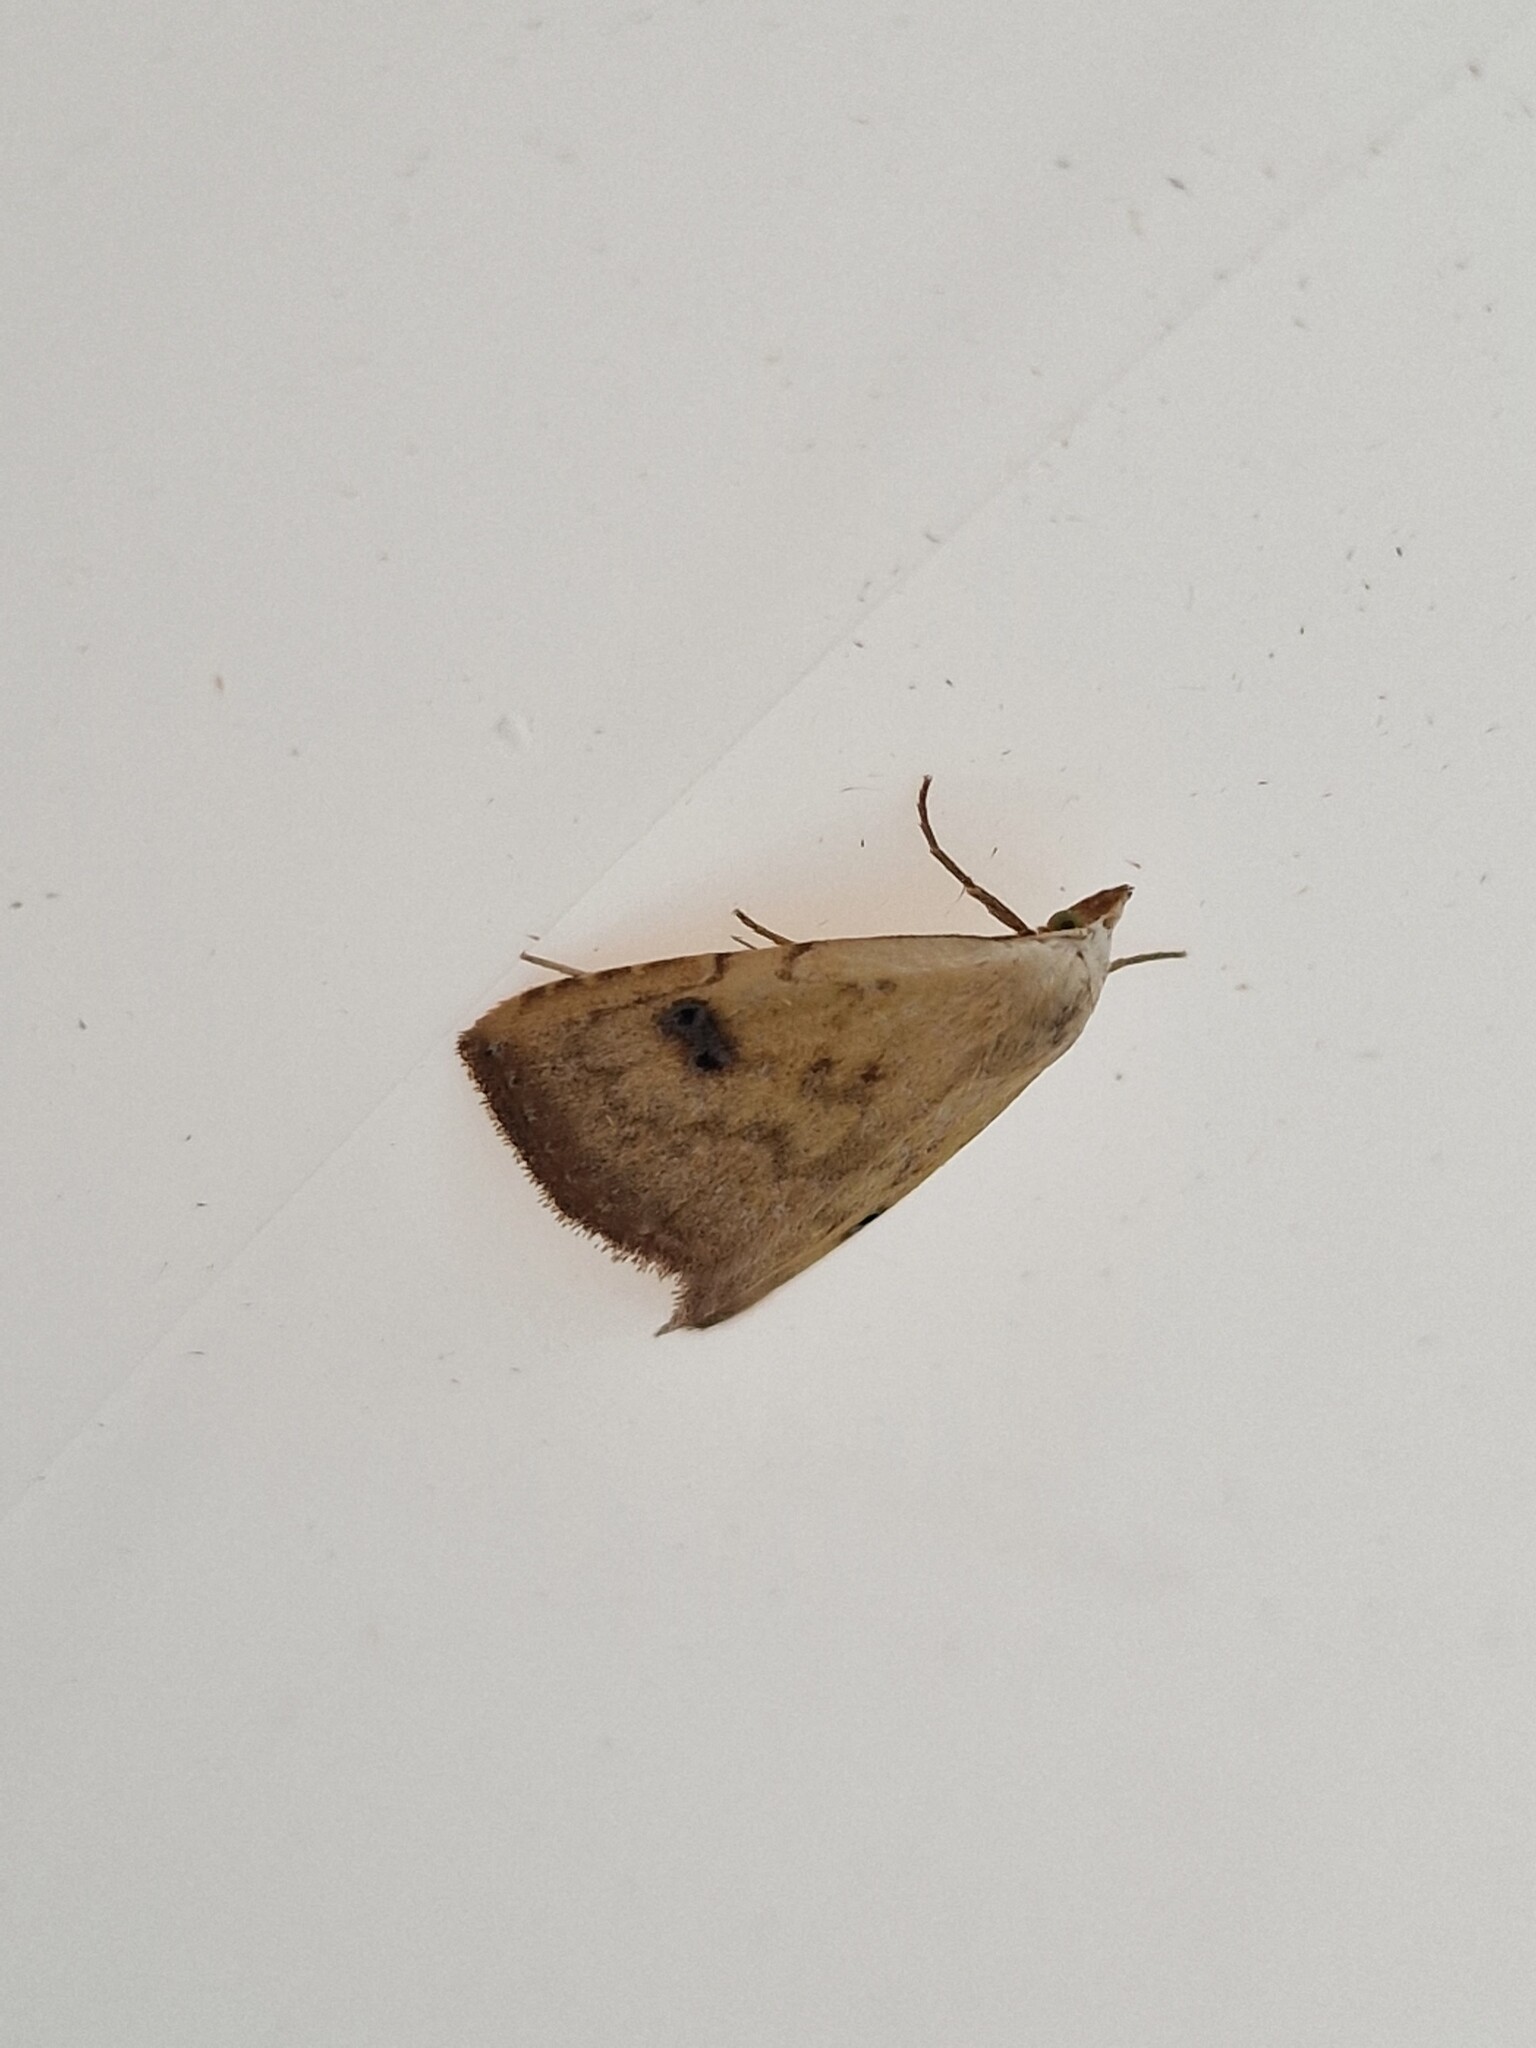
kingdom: Animalia
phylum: Arthropoda
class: Insecta
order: Lepidoptera
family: Erebidae
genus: Rivula
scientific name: Rivula sericealis
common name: Straw dot
